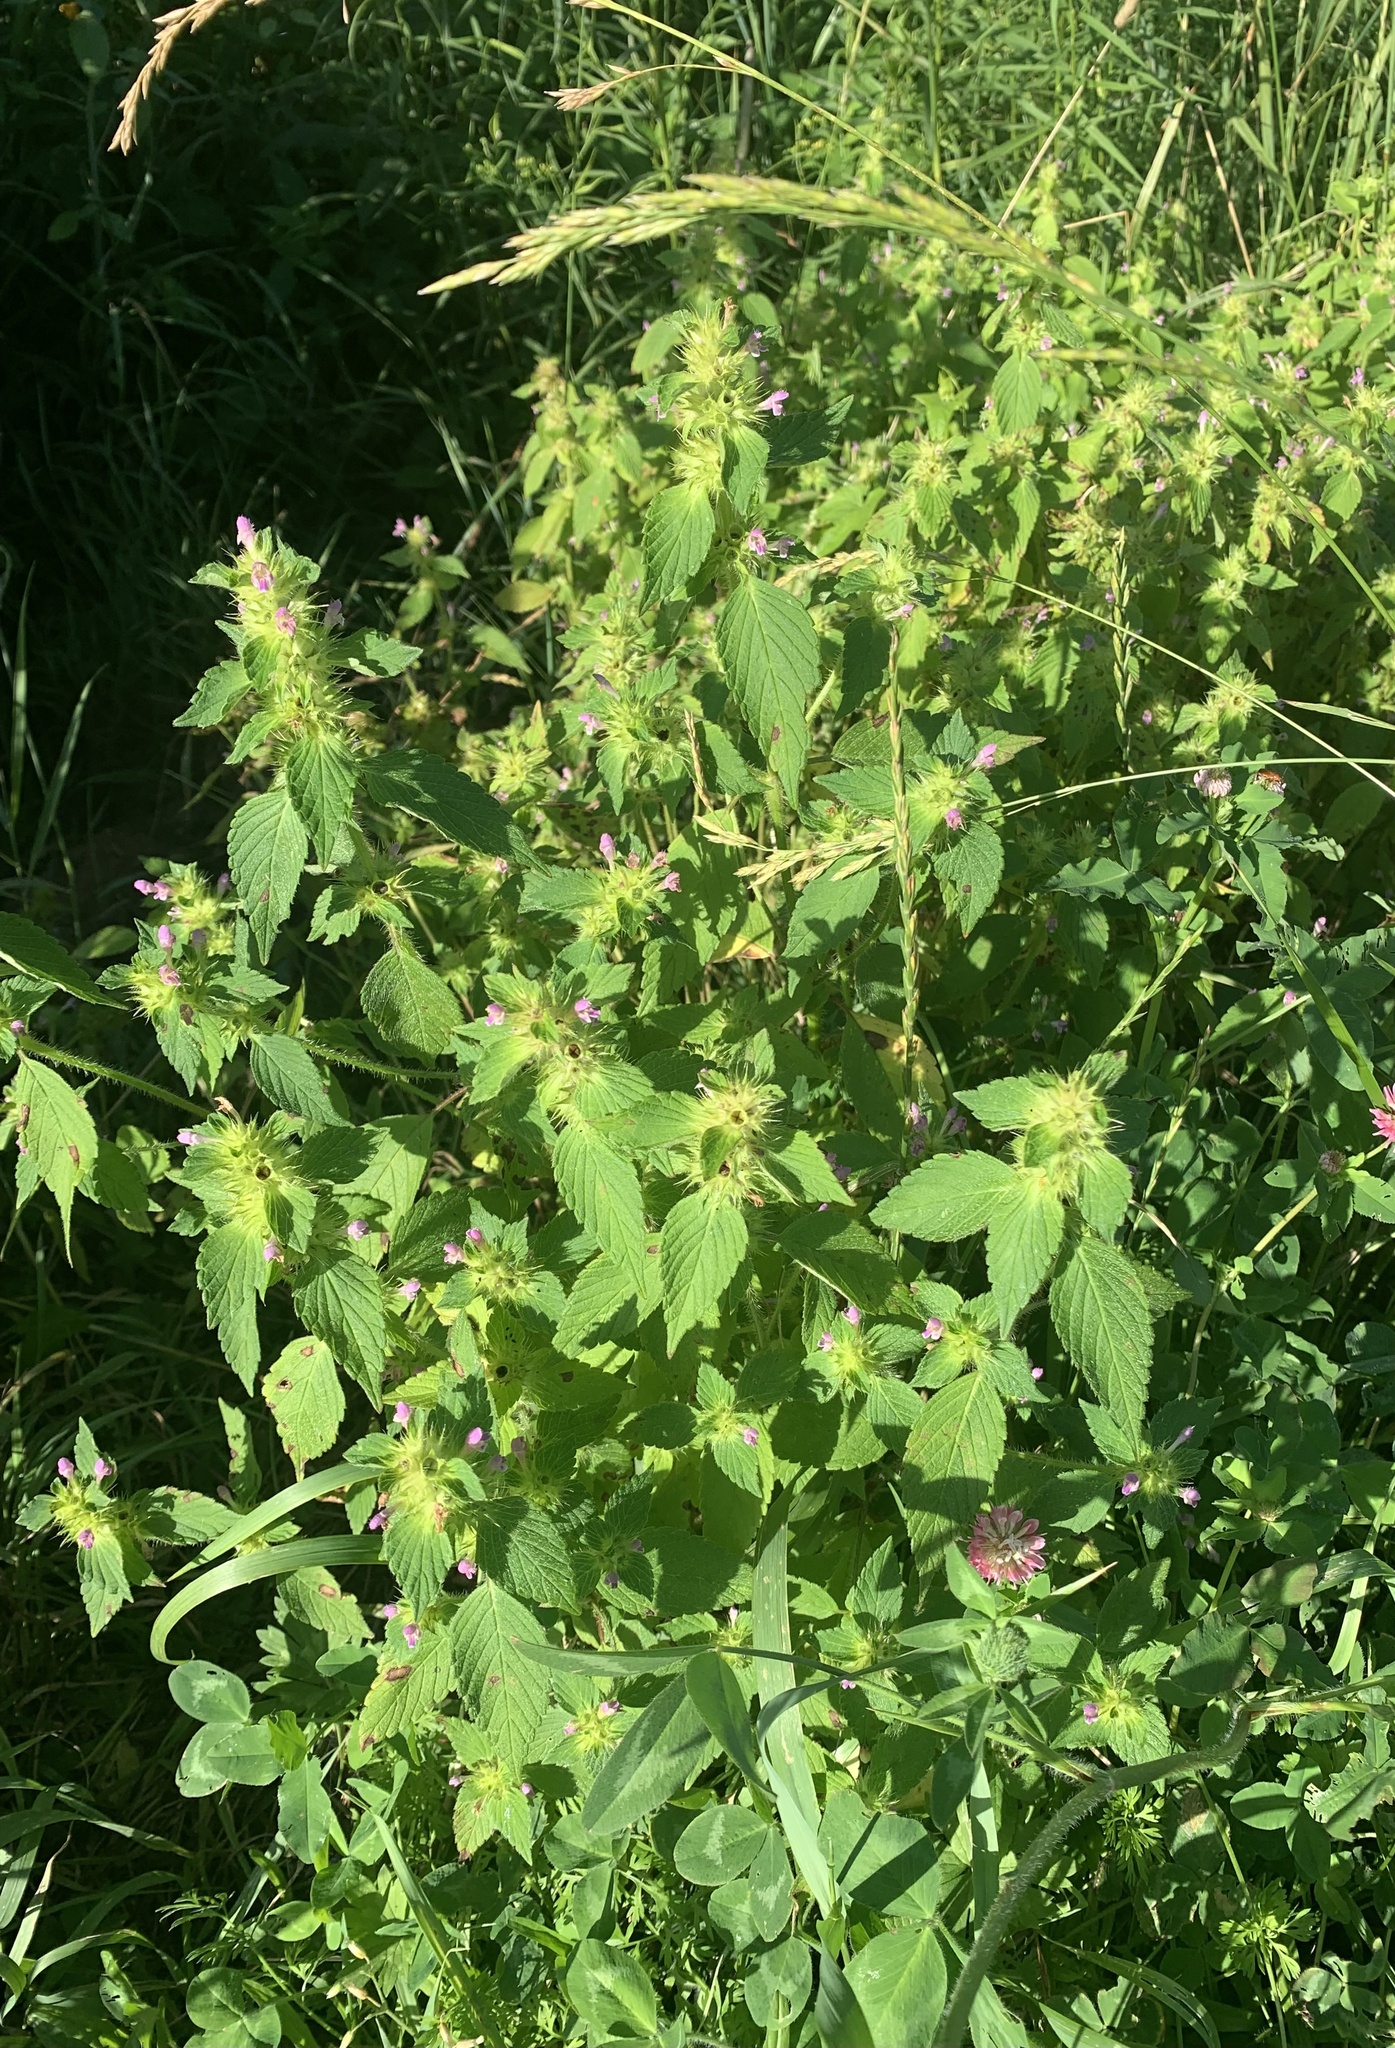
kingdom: Plantae
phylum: Tracheophyta
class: Magnoliopsida
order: Lamiales
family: Lamiaceae
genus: Galeopsis
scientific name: Galeopsis bifida
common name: Bifid hemp-nettle
